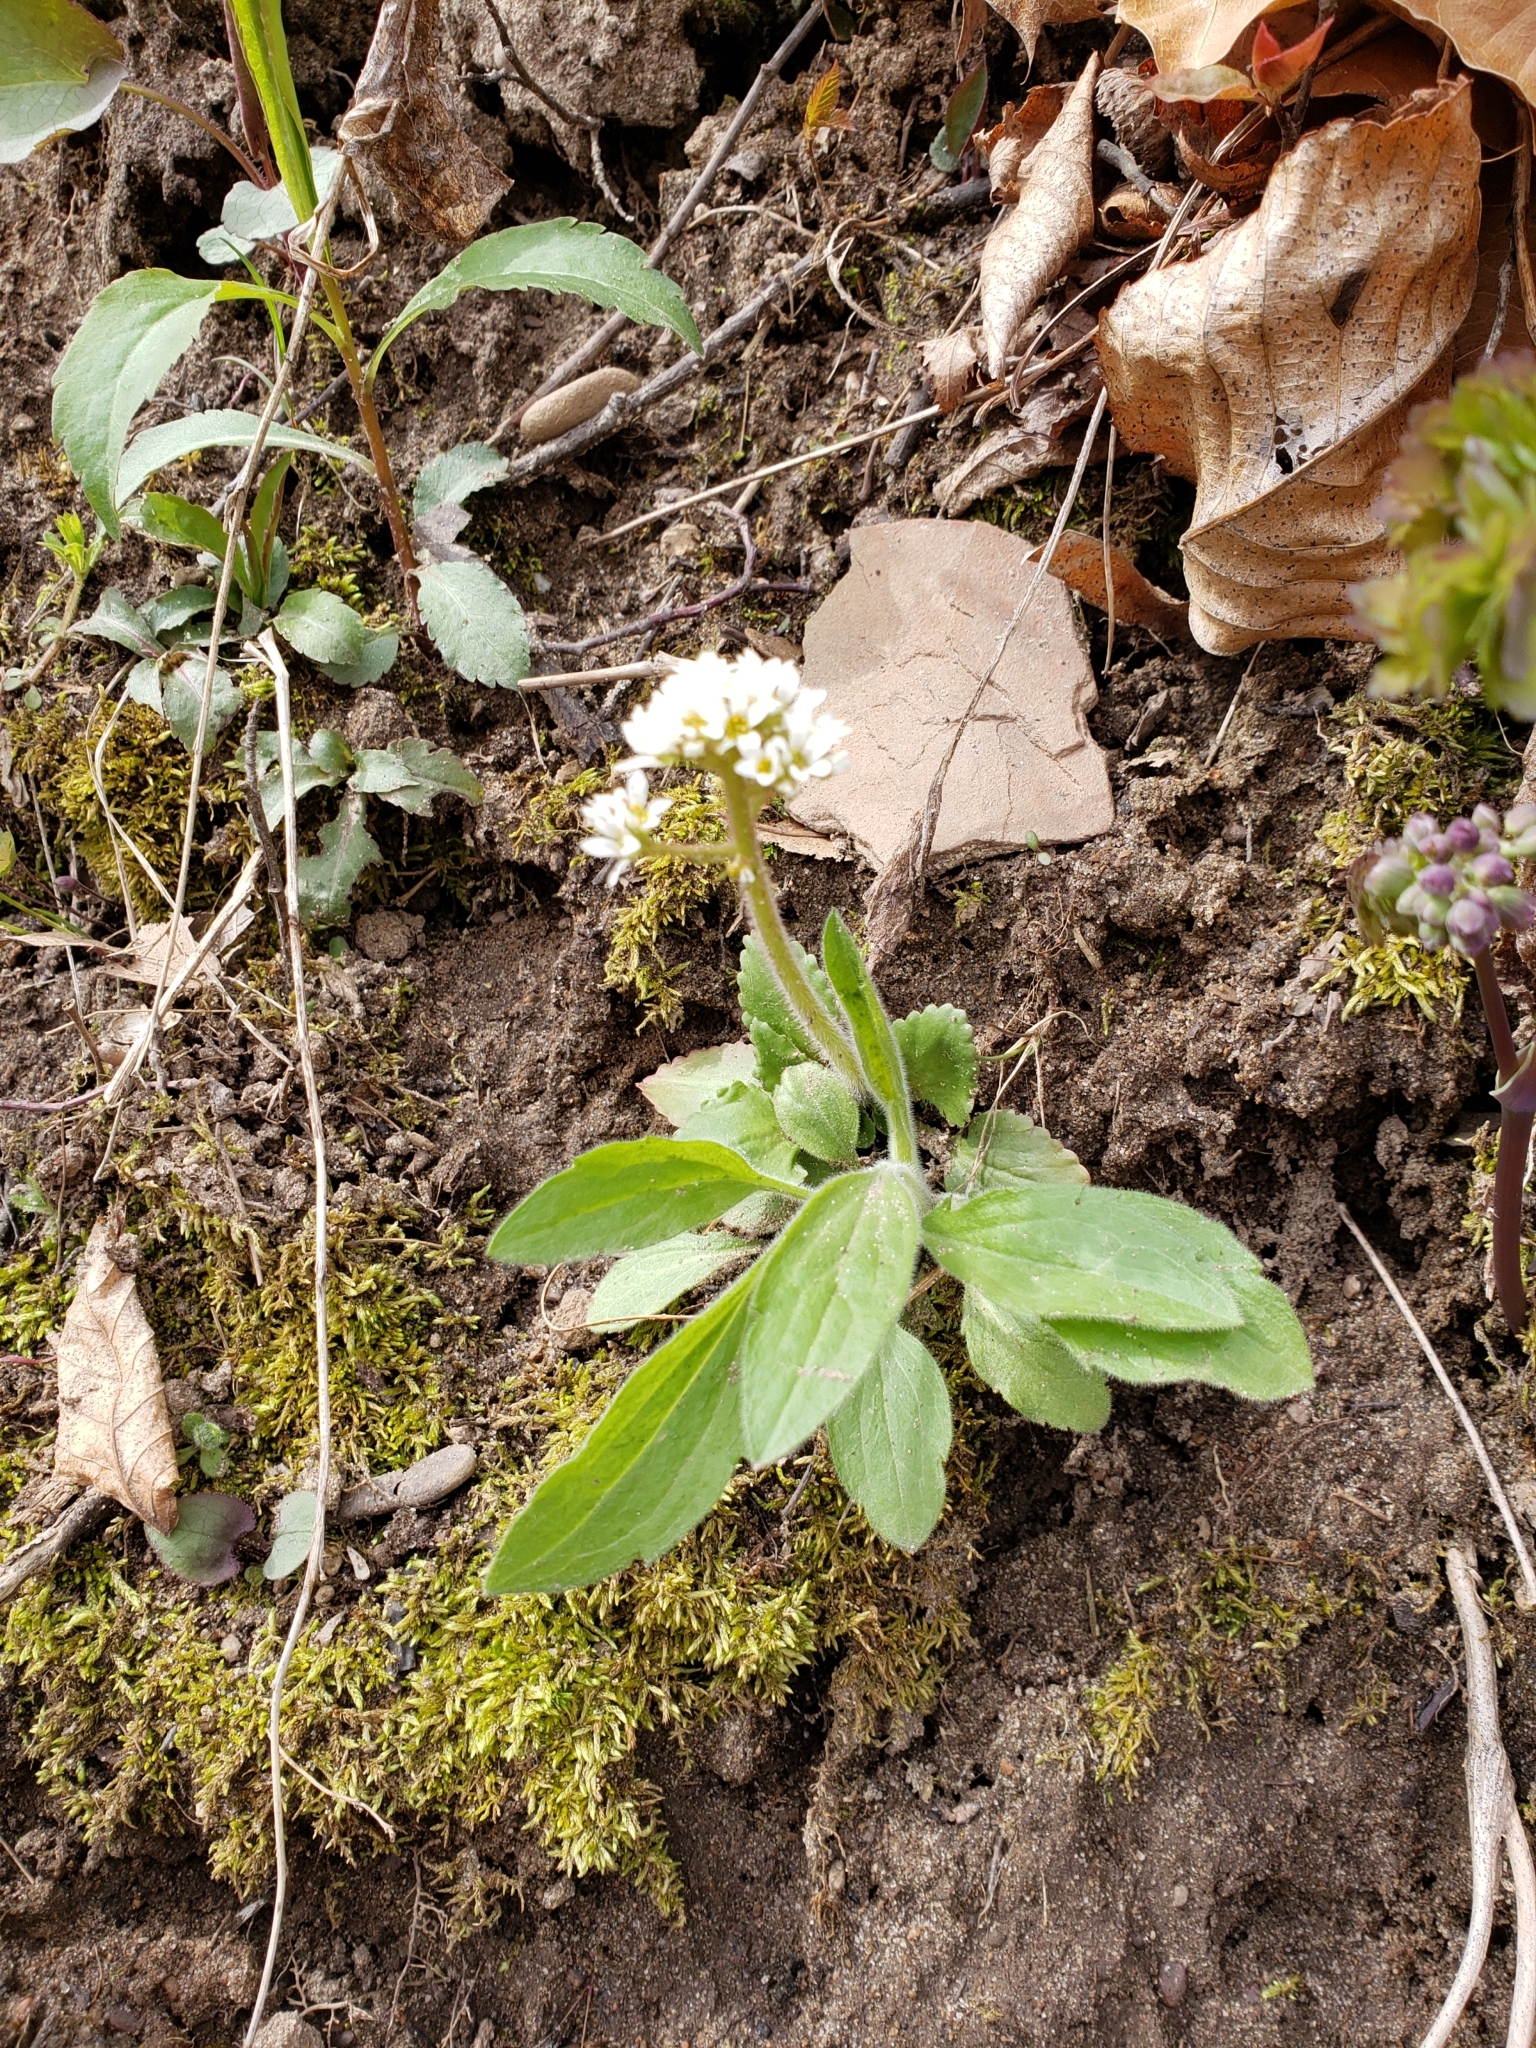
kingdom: Plantae
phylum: Tracheophyta
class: Magnoliopsida
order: Saxifragales
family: Saxifragaceae
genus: Micranthes
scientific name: Micranthes virginiensis
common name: Early saxifrage
